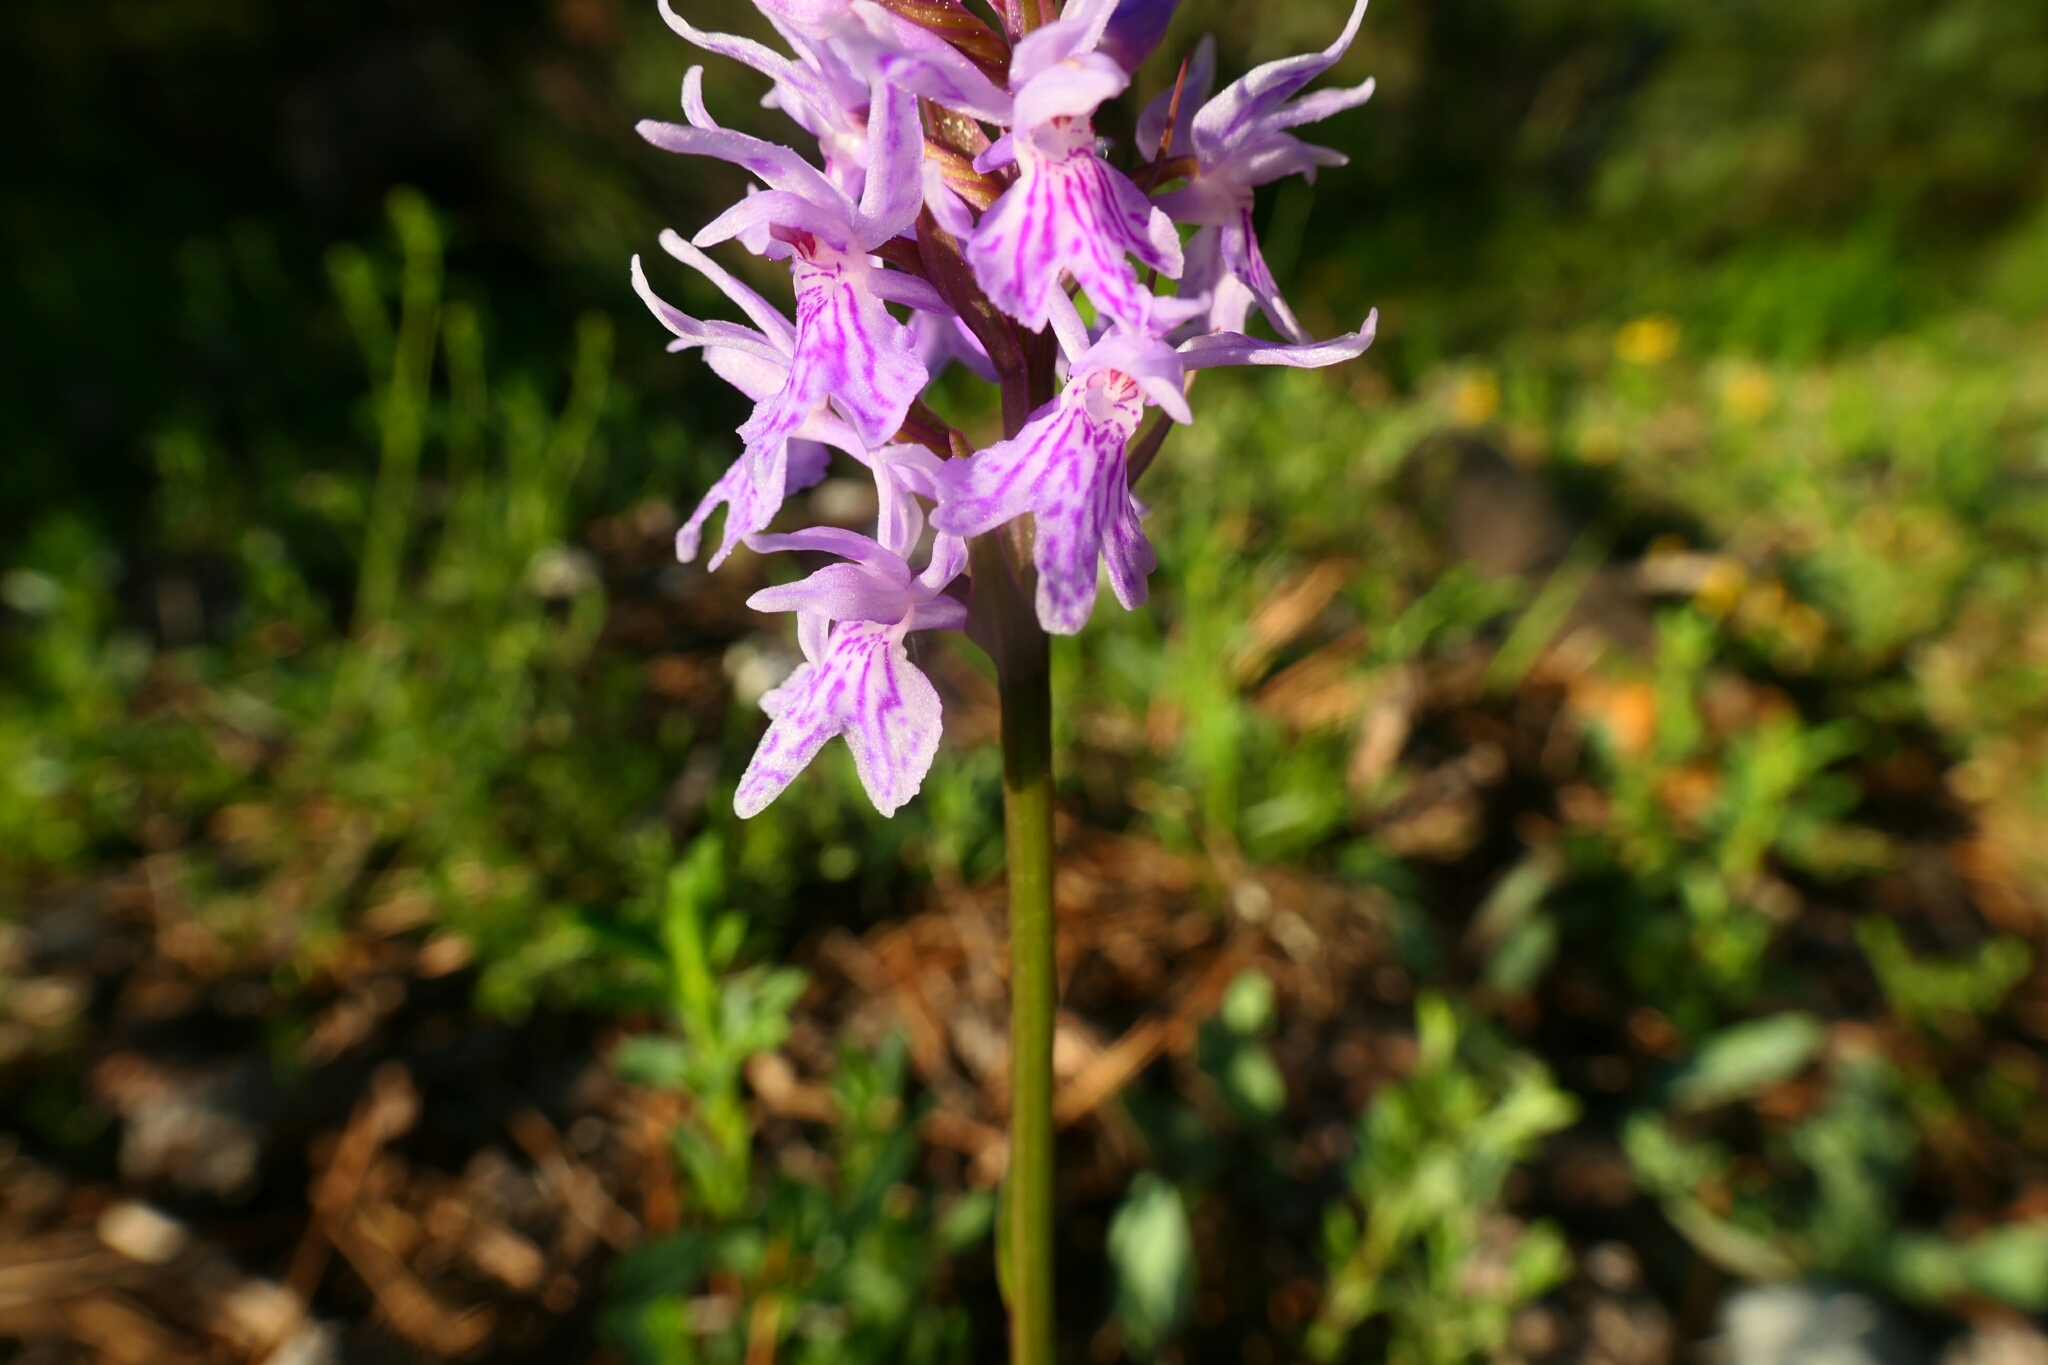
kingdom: Plantae
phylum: Tracheophyta
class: Liliopsida
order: Asparagales
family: Orchidaceae
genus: Dactylorhiza
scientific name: Dactylorhiza maculata
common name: Heath spotted-orchid
